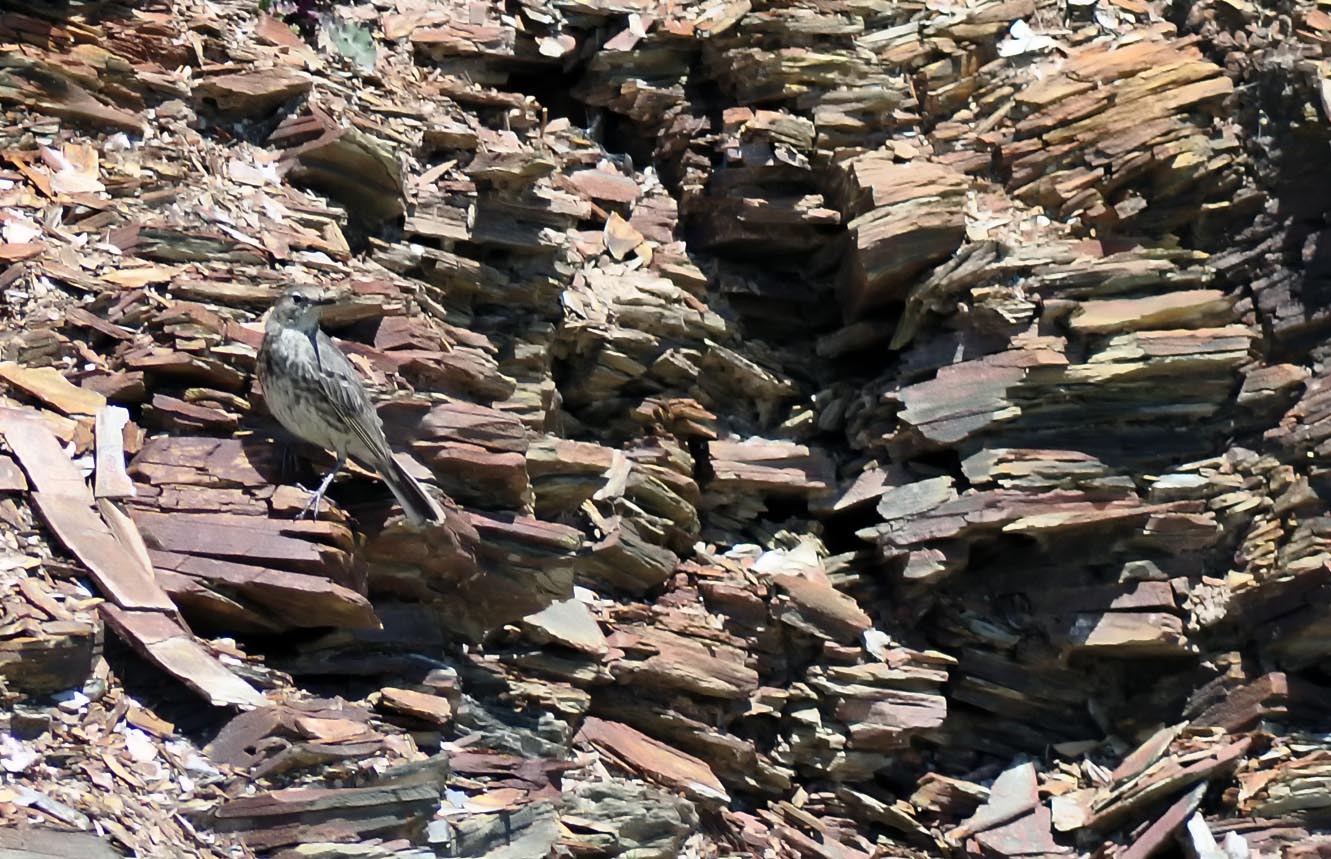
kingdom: Animalia
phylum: Chordata
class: Aves
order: Passeriformes
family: Motacillidae
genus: Anthus
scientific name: Anthus petrosus
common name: Eurasian rock pipit
